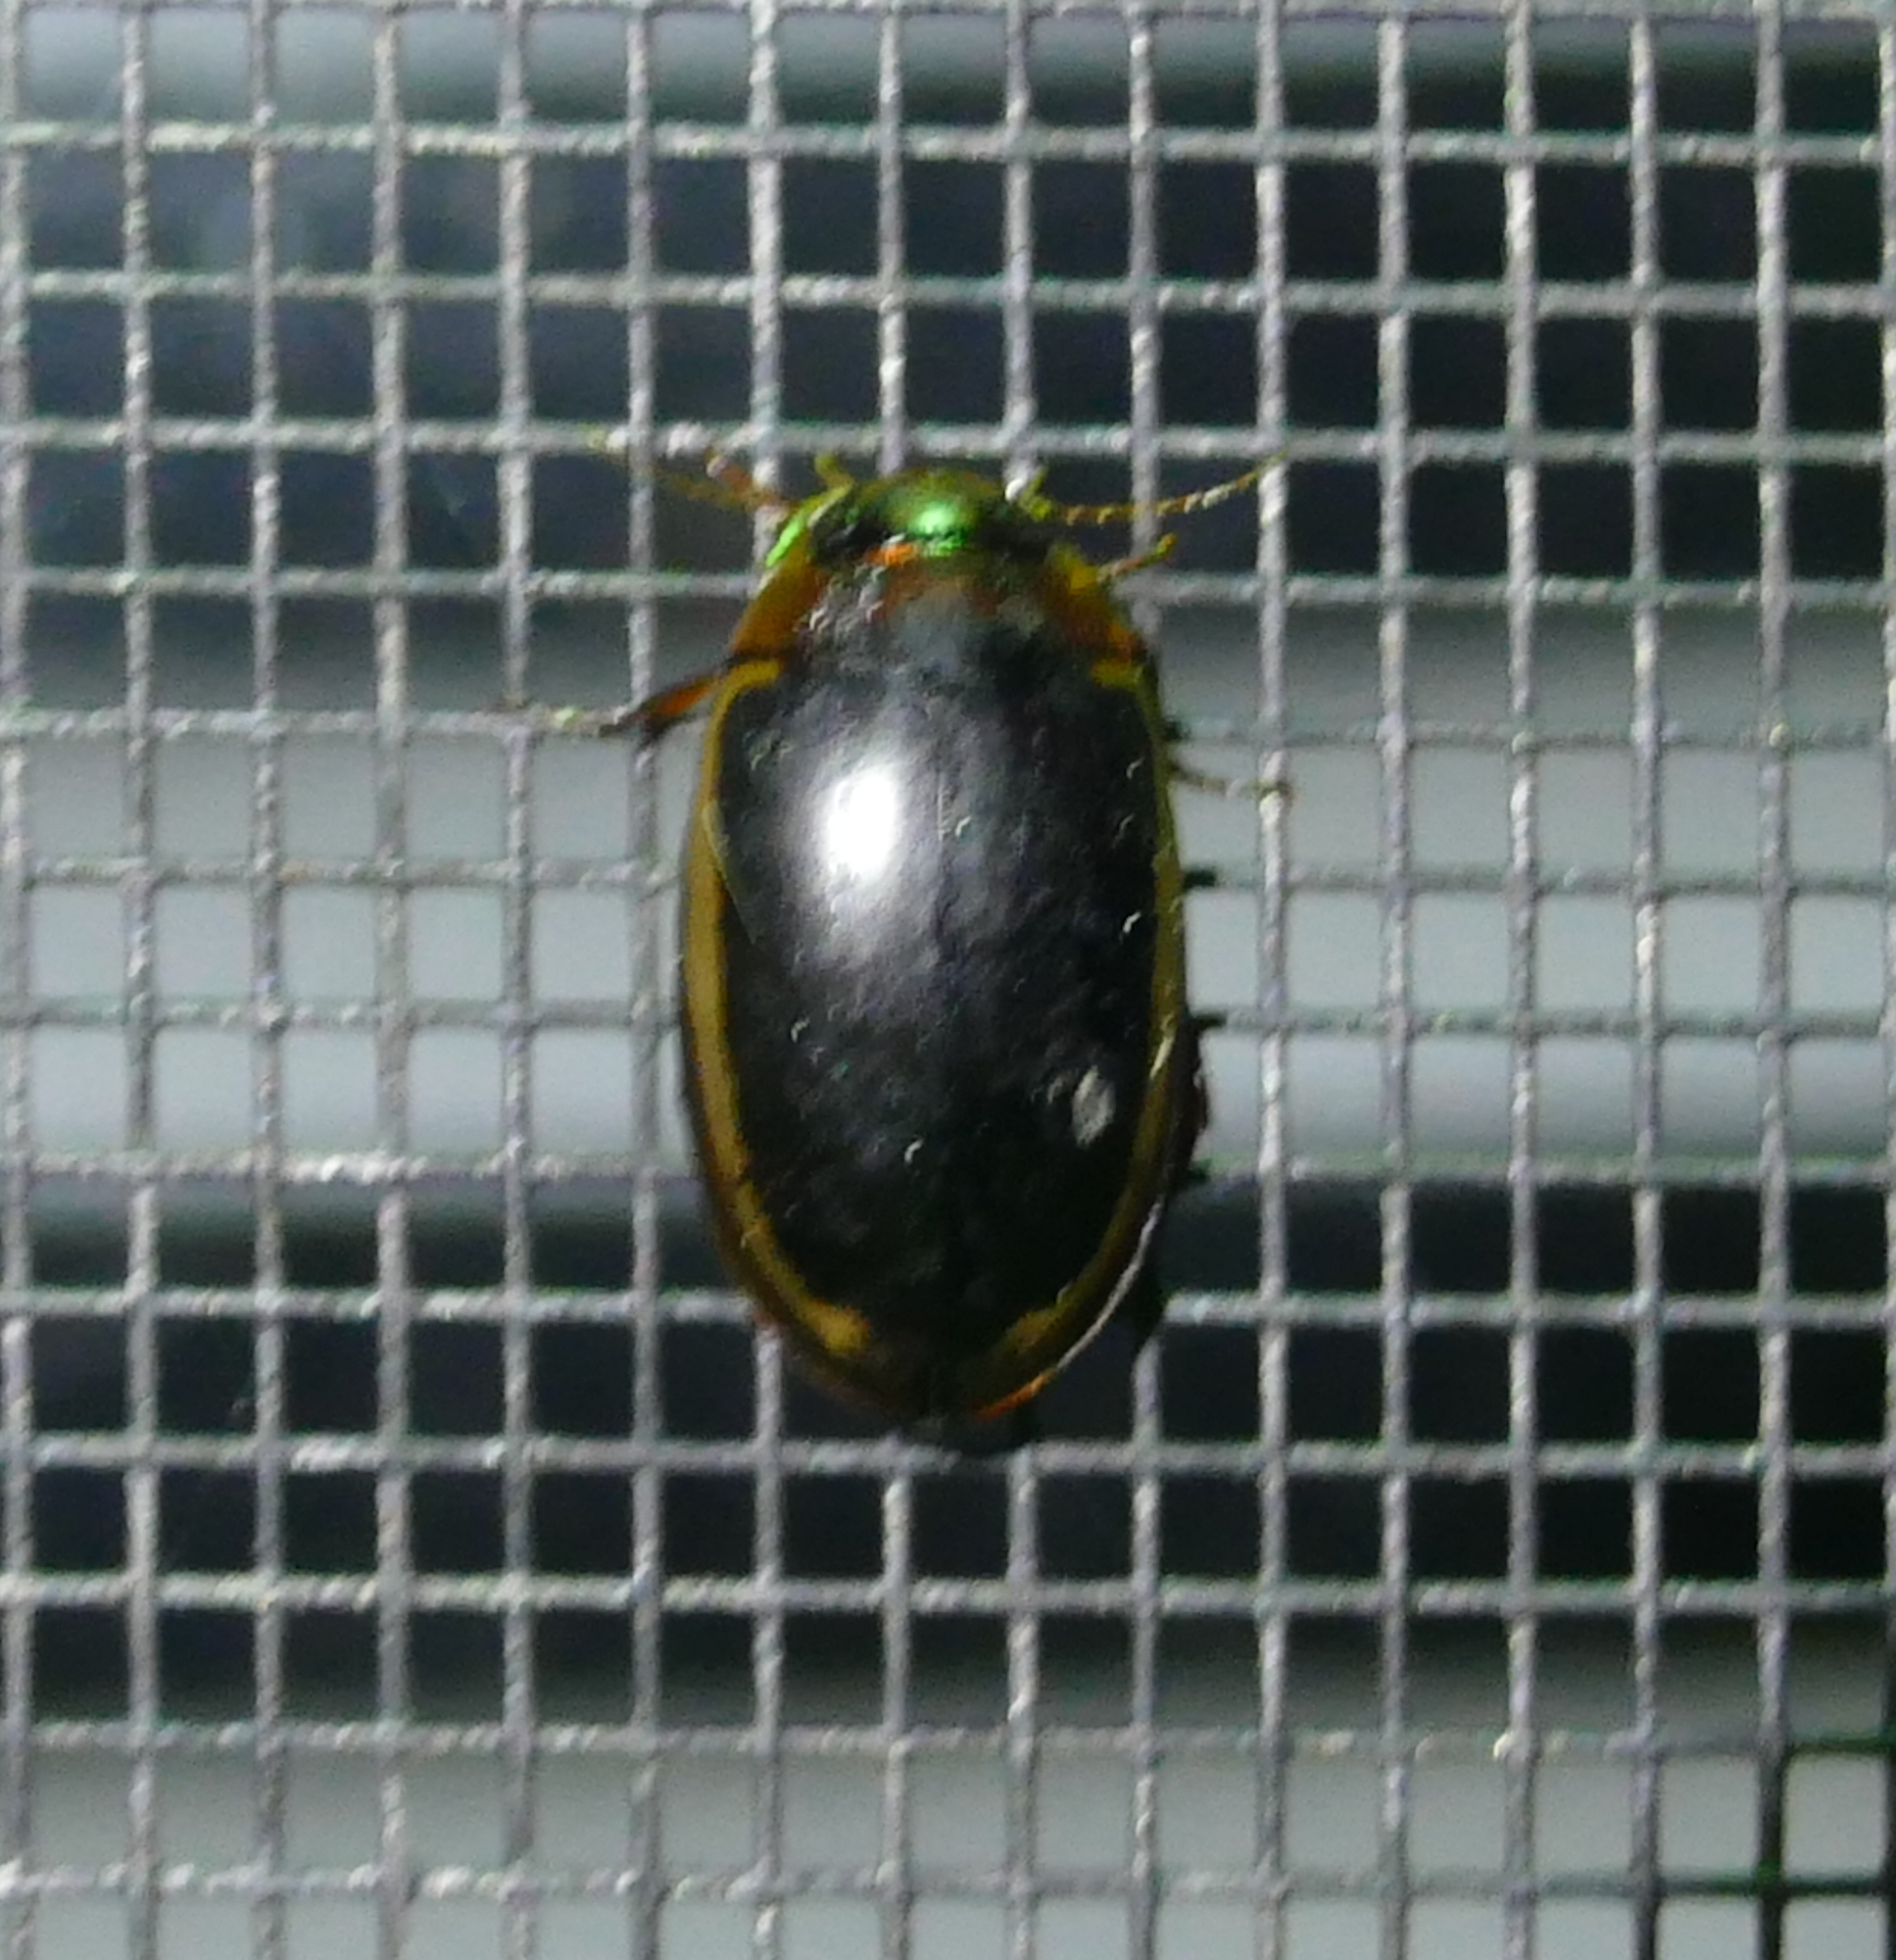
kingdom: Animalia
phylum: Arthropoda
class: Insecta
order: Coleoptera
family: Dytiscidae
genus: Hydaticus
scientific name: Hydaticus bimarginatus
